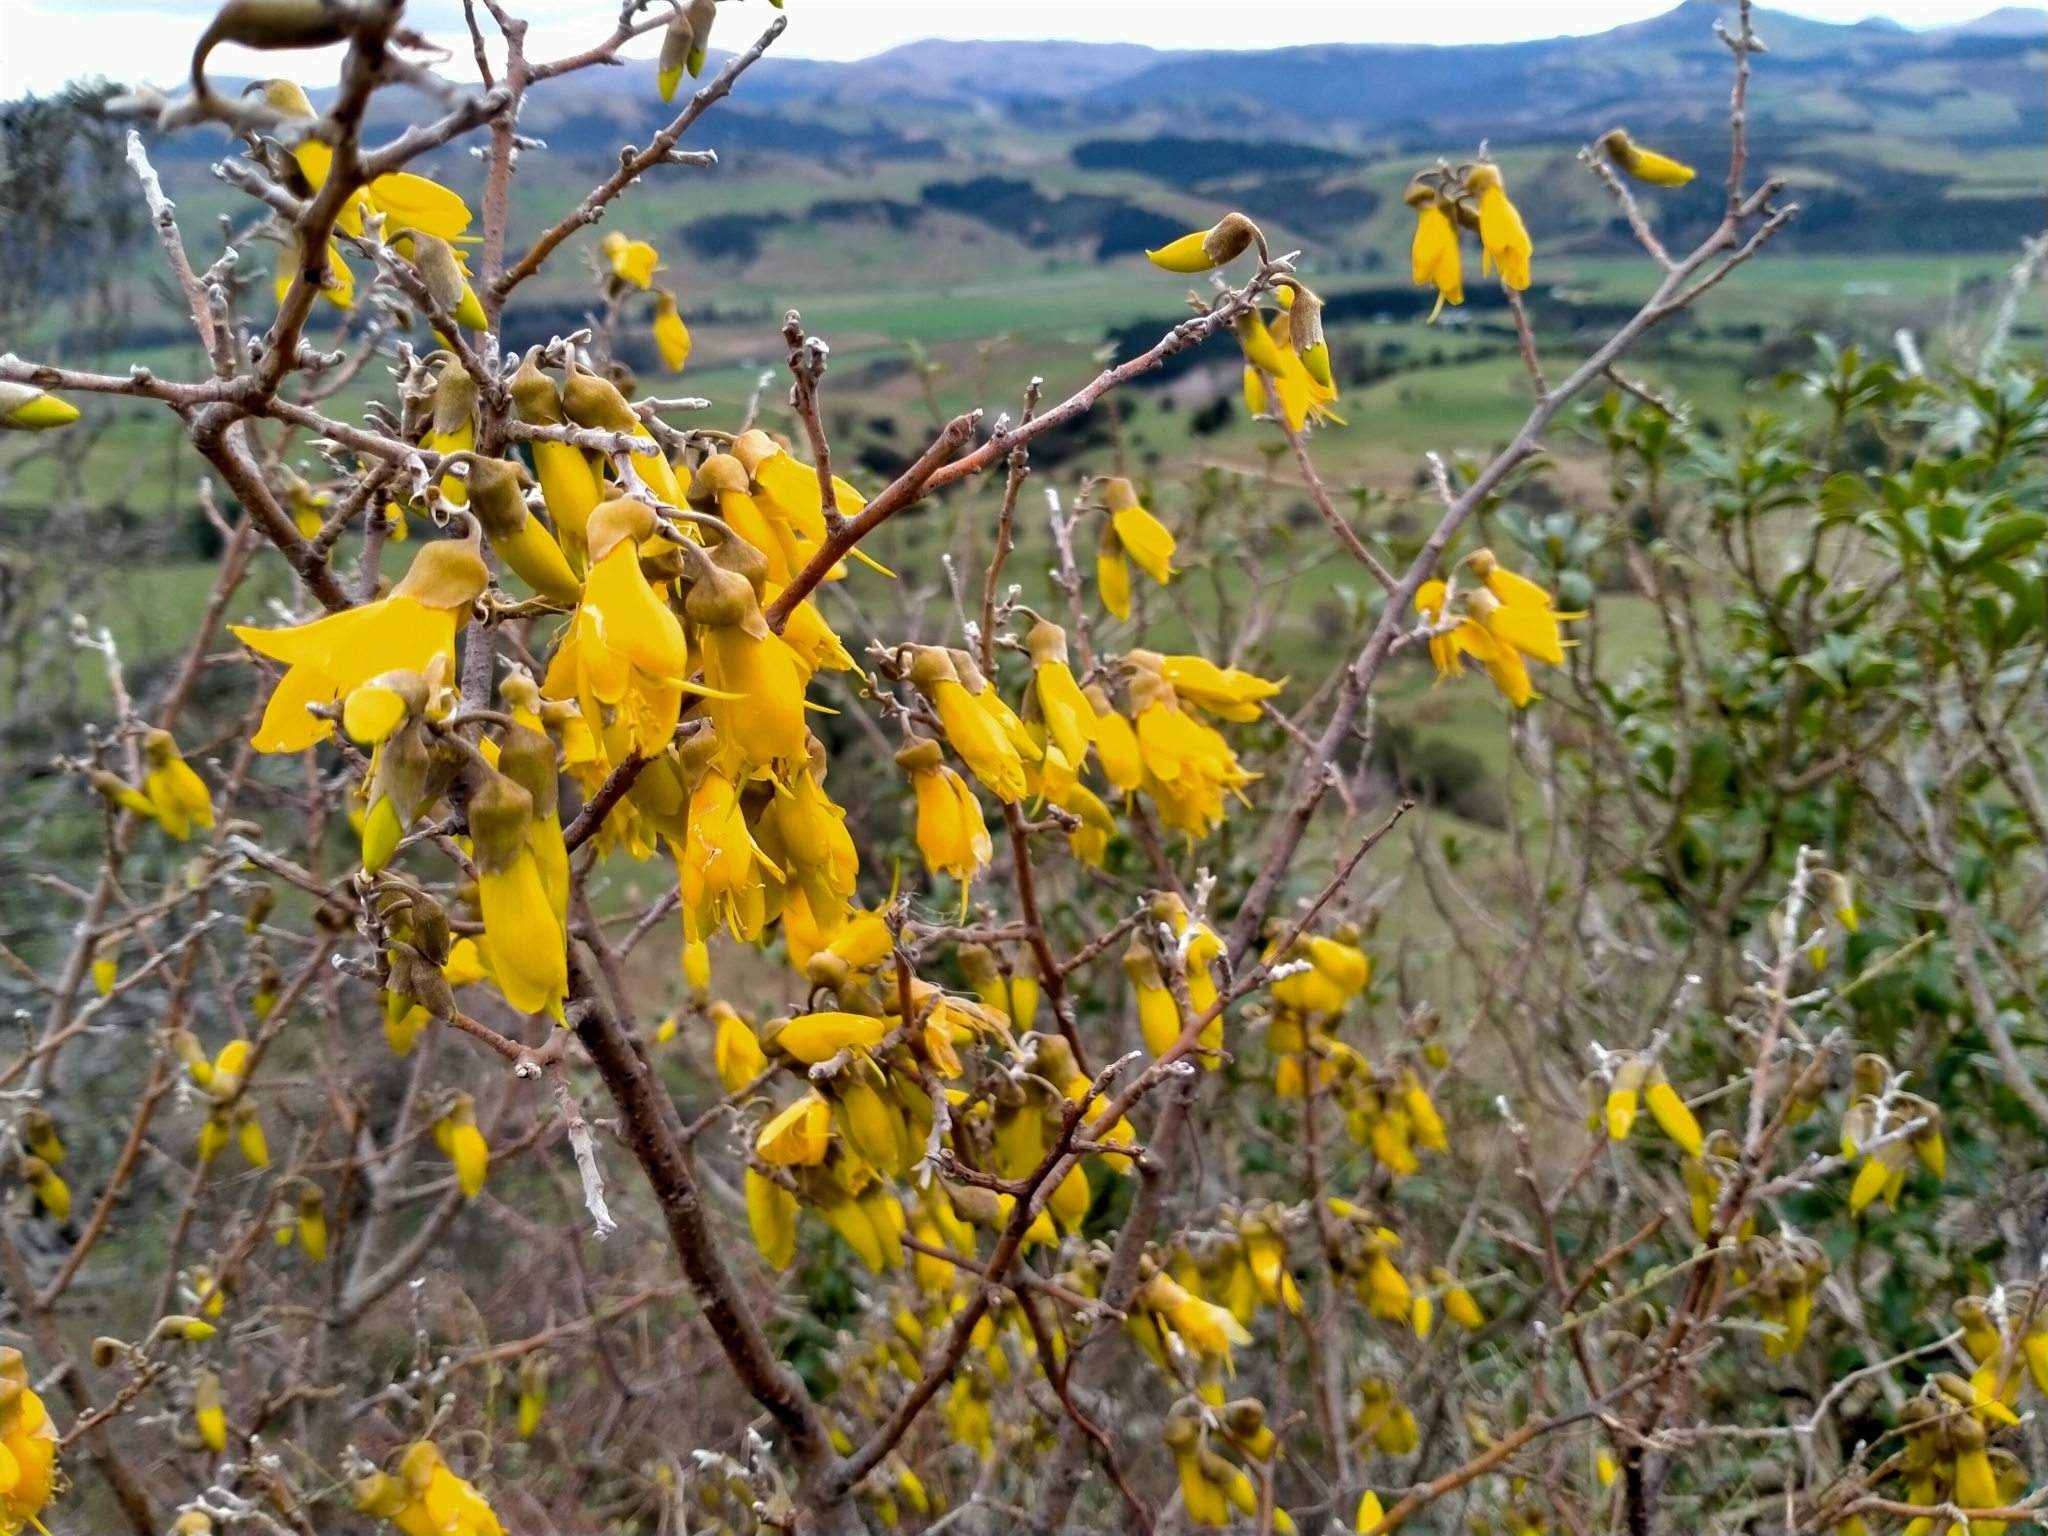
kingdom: Plantae
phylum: Tracheophyta
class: Magnoliopsida
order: Fabales
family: Fabaceae
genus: Sophora
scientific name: Sophora microphylla
